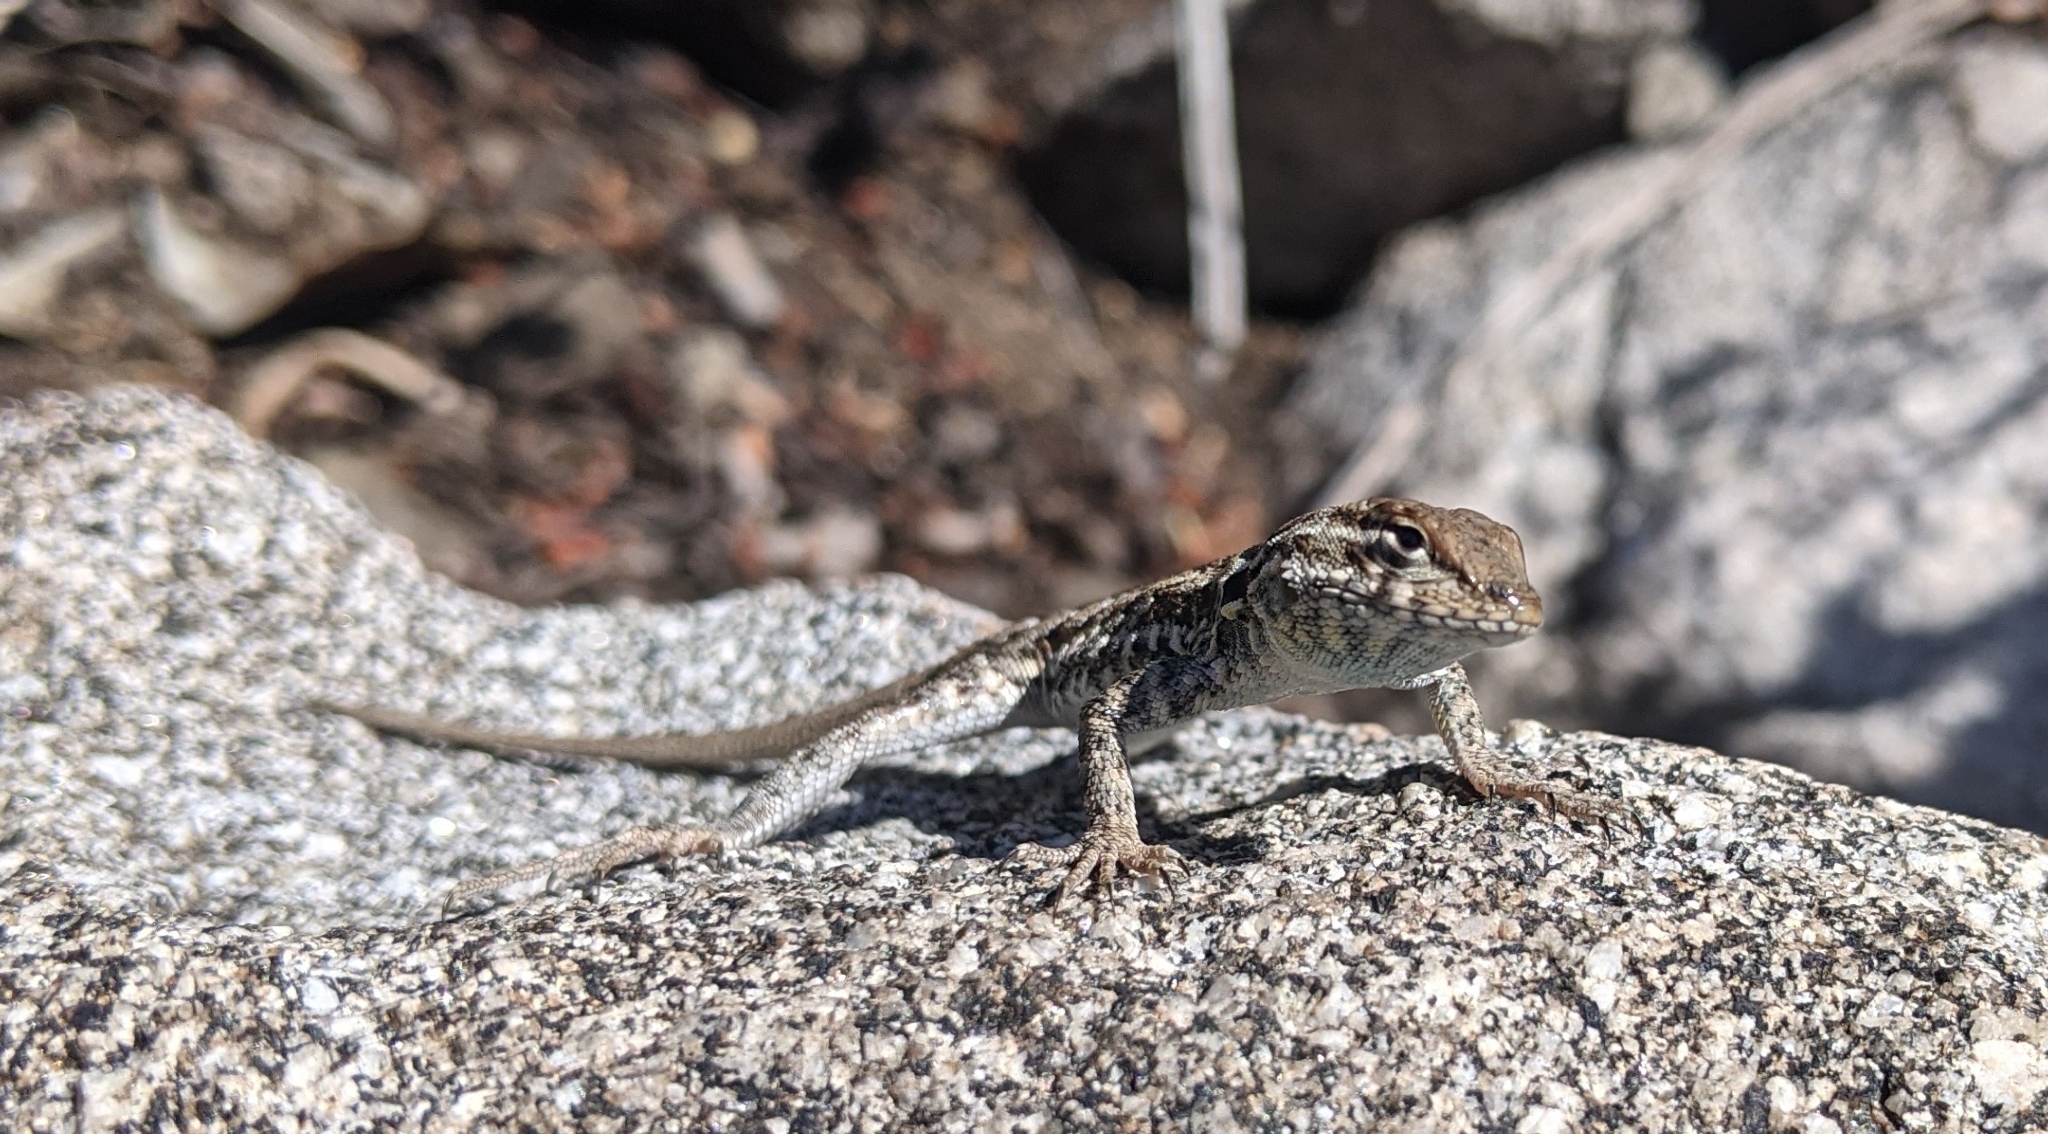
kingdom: Animalia
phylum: Chordata
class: Squamata
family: Phrynosomatidae
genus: Uta
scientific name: Uta stansburiana
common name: Side-blotched lizard
